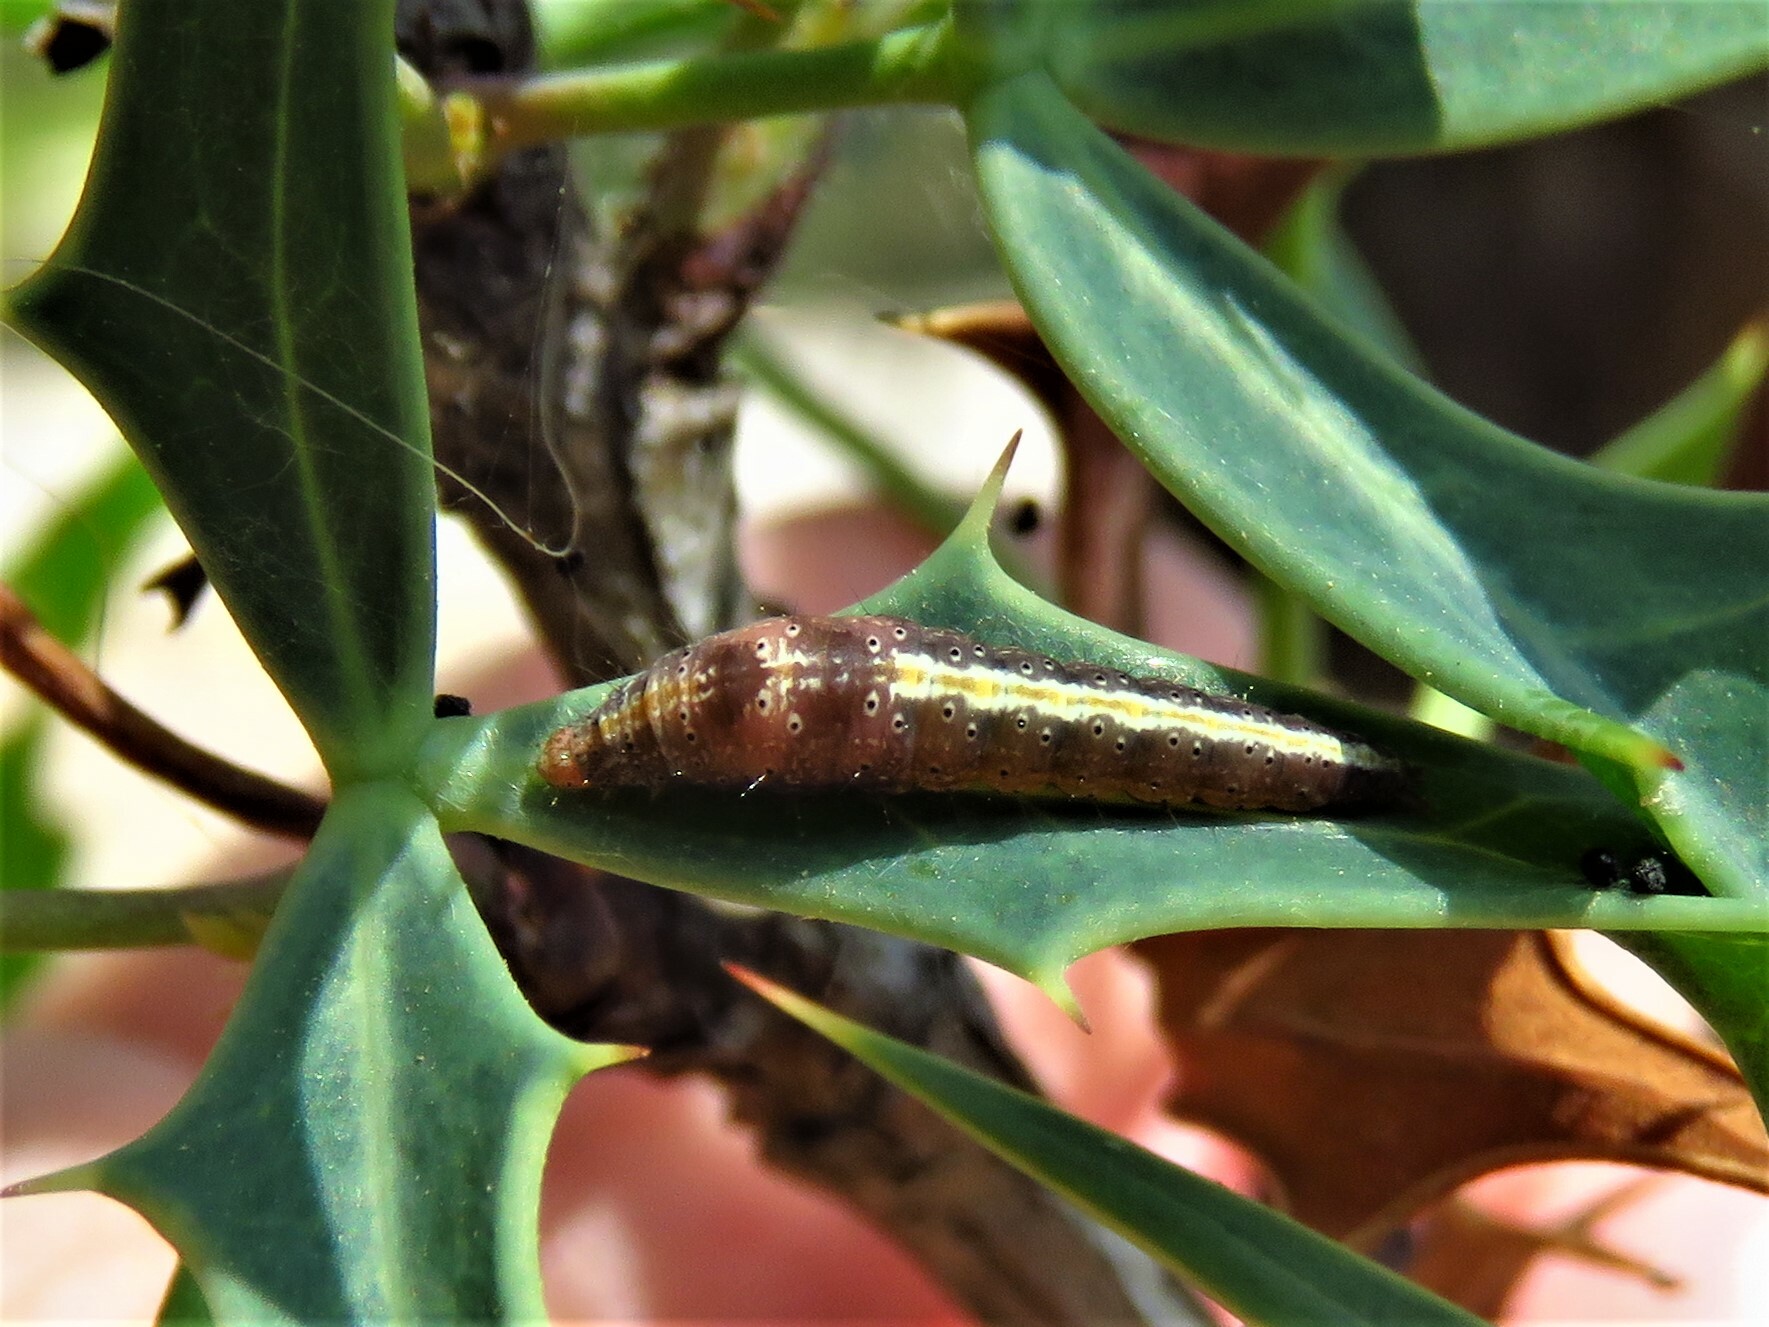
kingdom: Animalia
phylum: Arthropoda
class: Insecta
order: Lepidoptera
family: Ypsolophidae
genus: Ypsolopha
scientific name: Ypsolopha
